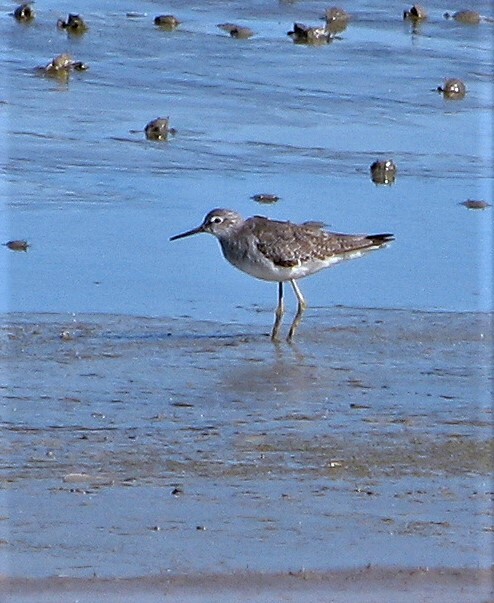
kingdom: Animalia
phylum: Chordata
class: Aves
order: Charadriiformes
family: Scolopacidae
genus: Tringa
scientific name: Tringa solitaria
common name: Solitary sandpiper
